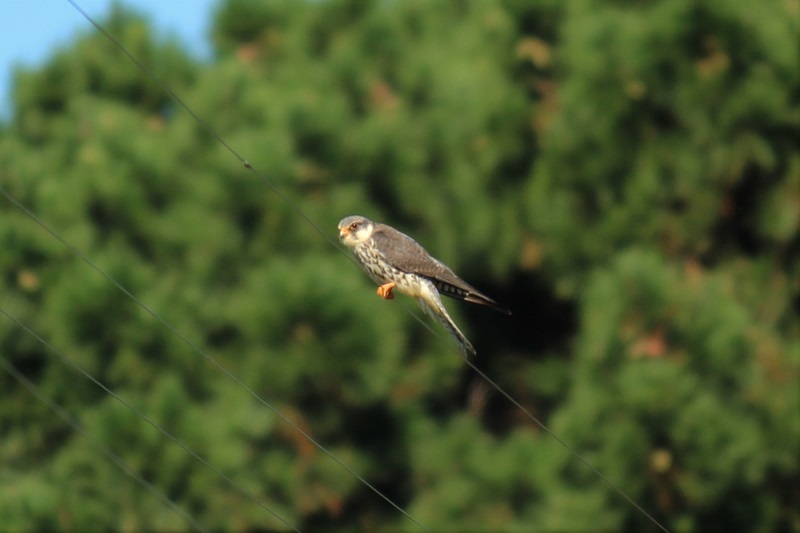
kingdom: Animalia
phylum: Chordata
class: Aves
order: Falconiformes
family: Falconidae
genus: Falco
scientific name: Falco amurensis
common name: Amur falcon
